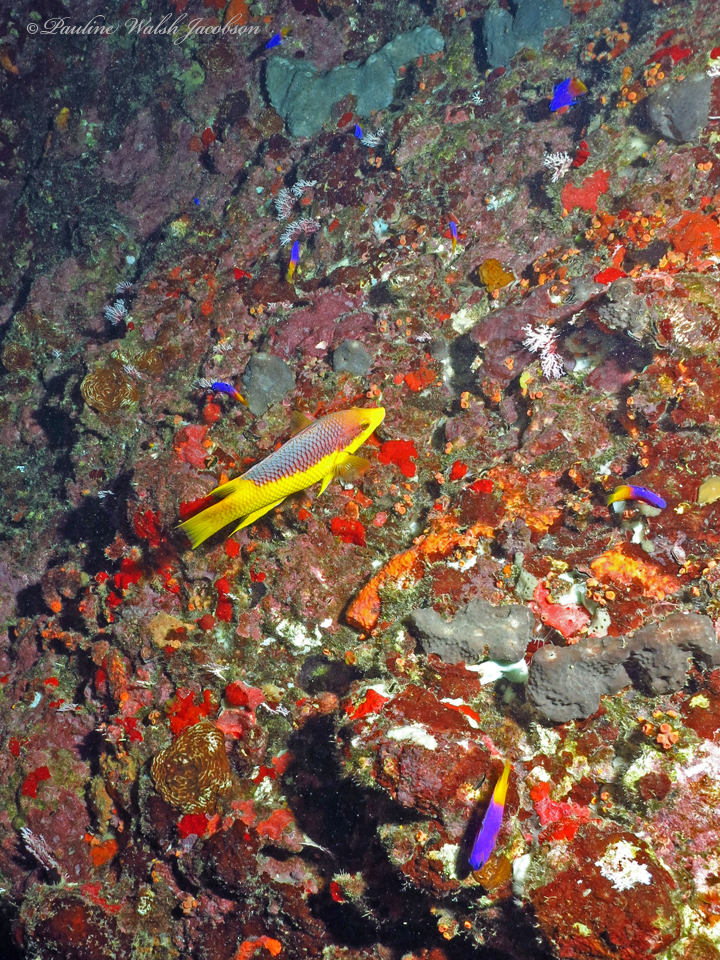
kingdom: Animalia
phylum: Chordata
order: Perciformes
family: Labridae
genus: Bodianus
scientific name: Bodianus rufus
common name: Spanish hogfish
